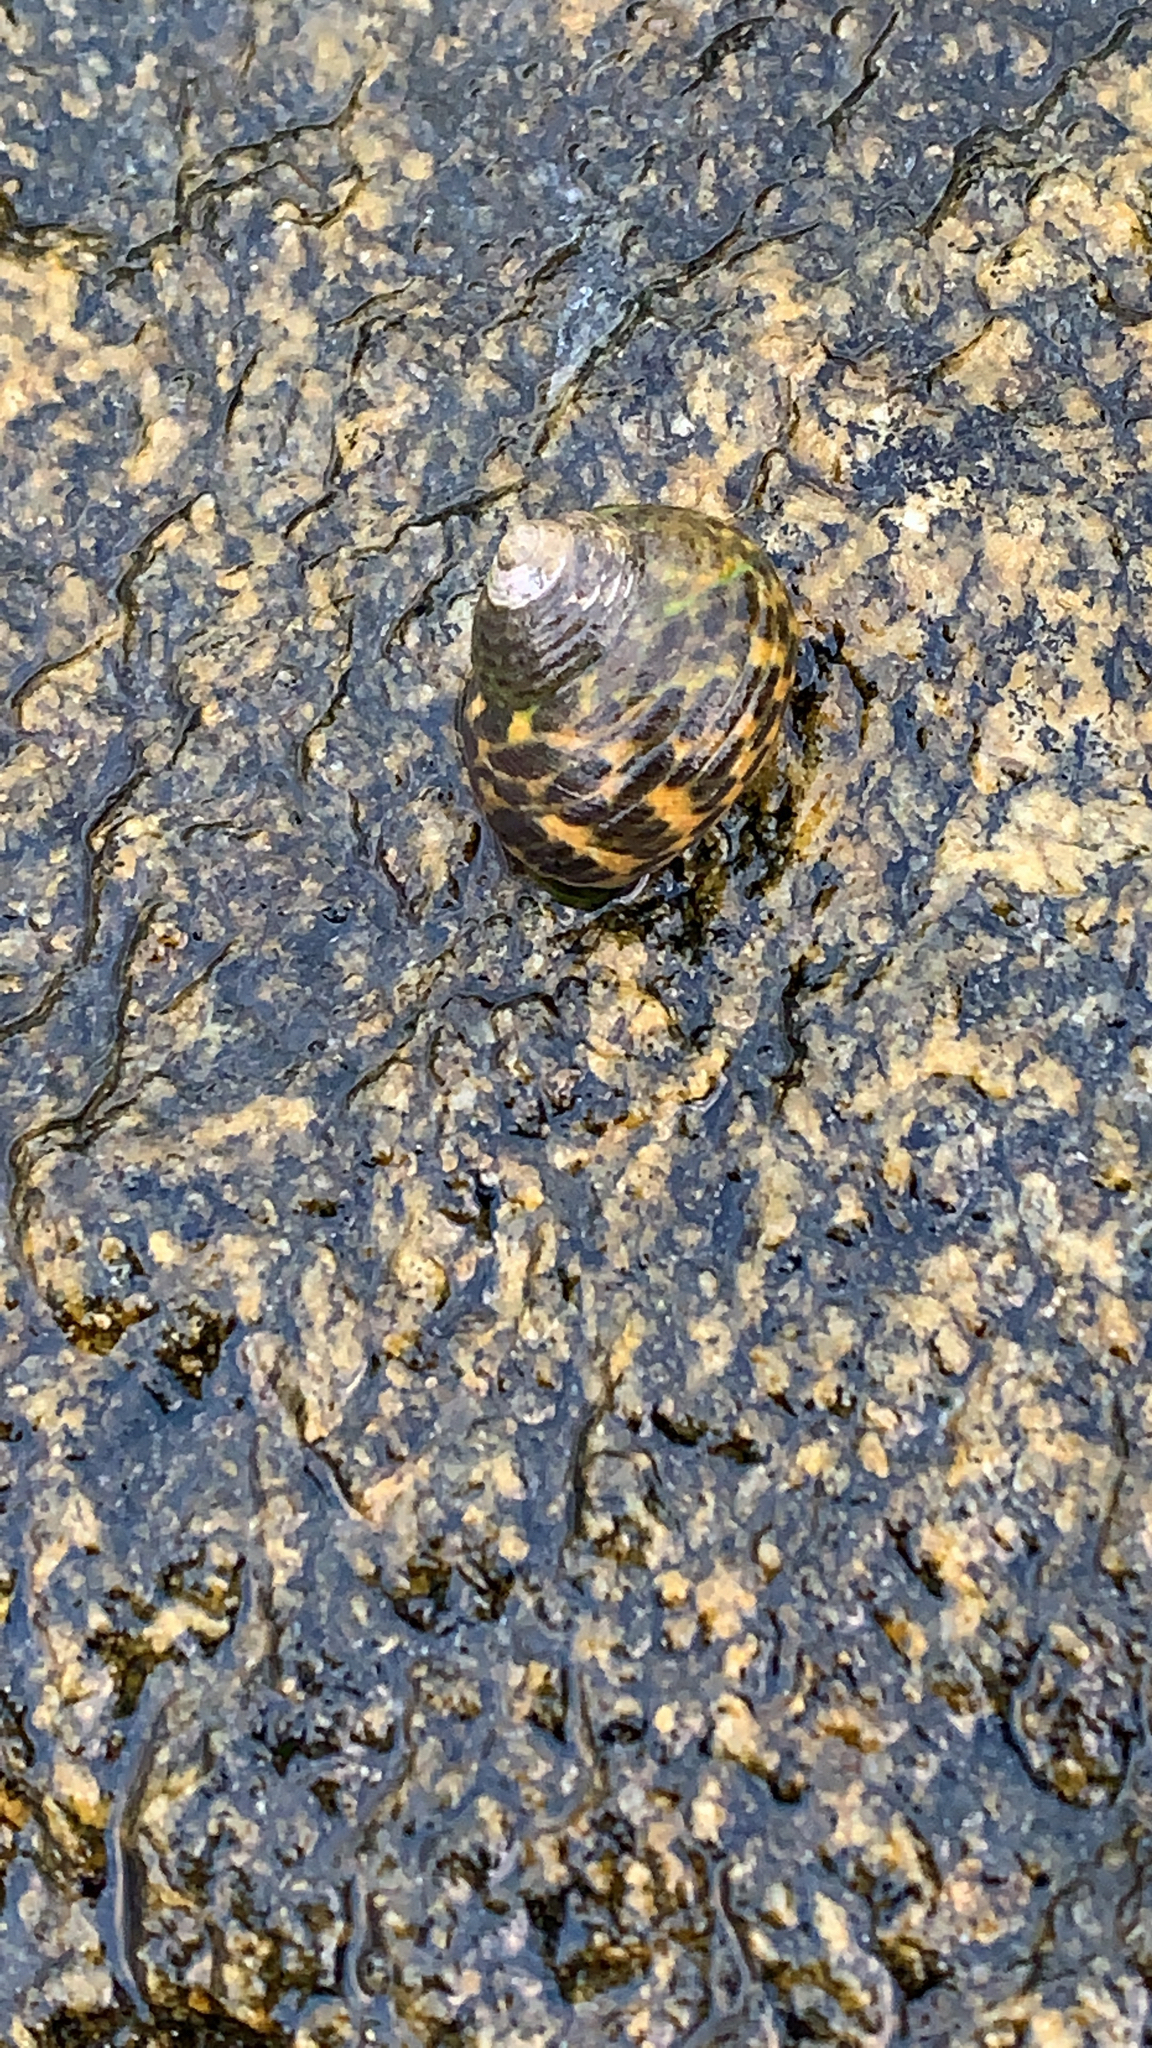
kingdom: Animalia
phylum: Mollusca
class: Gastropoda
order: Trochida
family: Trochidae
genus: Phorcus
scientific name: Phorcus turbinatus
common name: Turbinate monodont
